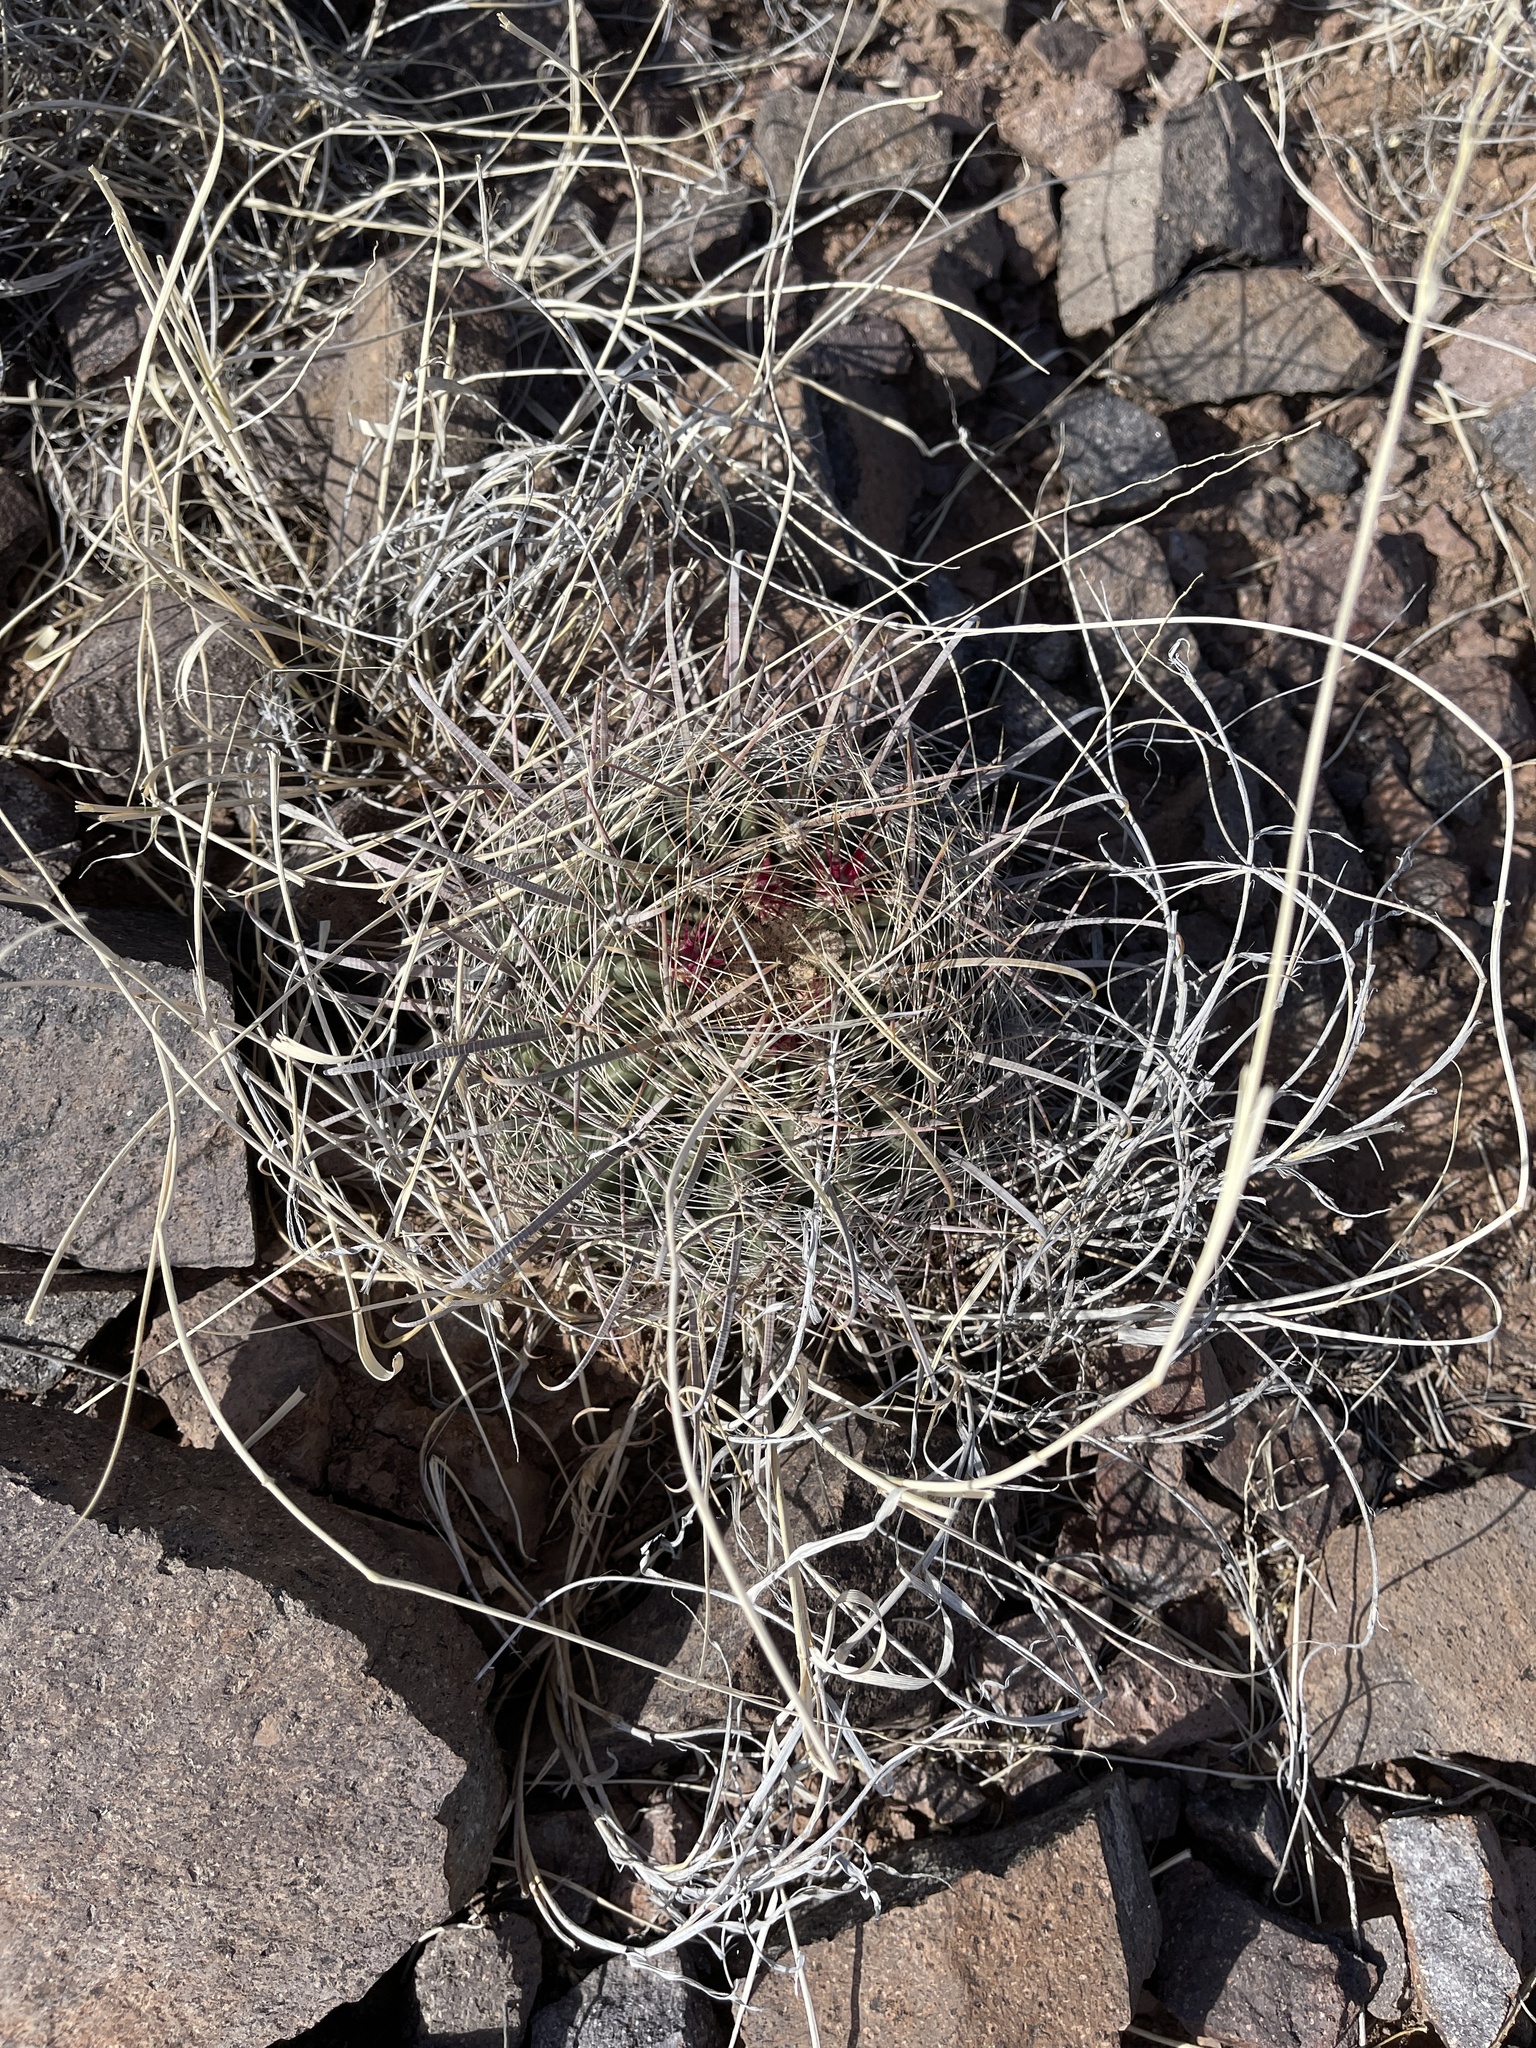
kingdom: Plantae
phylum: Tracheophyta
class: Magnoliopsida
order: Caryophyllales
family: Cactaceae
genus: Ferocactus
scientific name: Ferocactus wislizeni
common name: Candy barrel cactus
